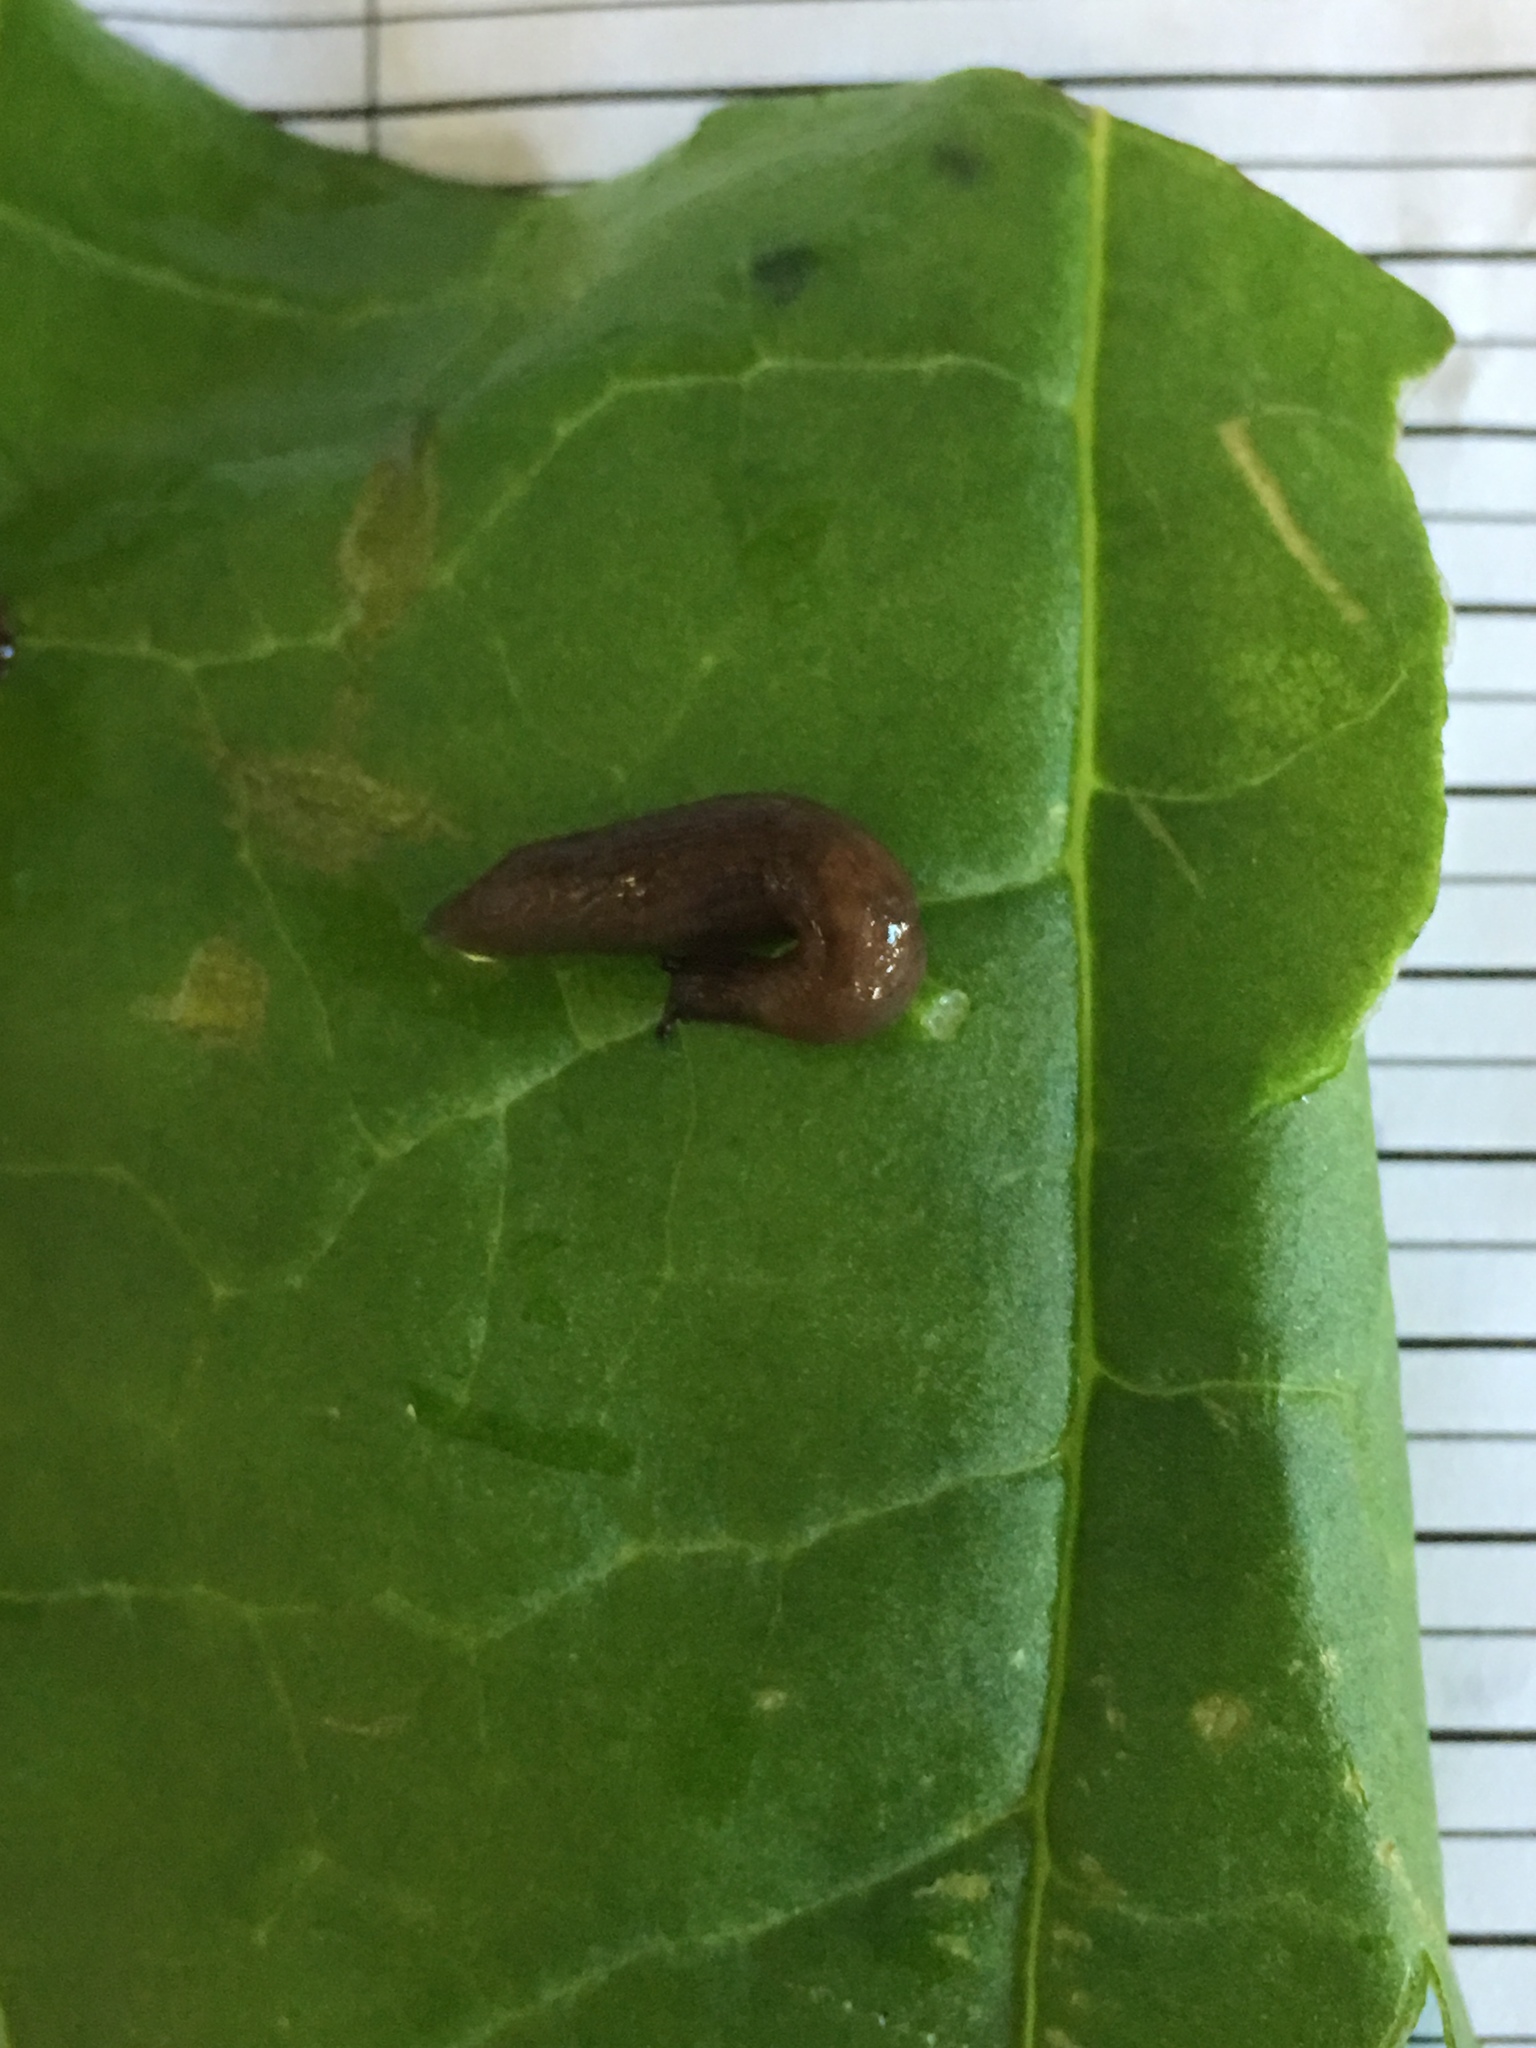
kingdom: Animalia
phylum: Mollusca
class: Gastropoda
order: Stylommatophora
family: Agriolimacidae
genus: Deroceras
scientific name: Deroceras laeve
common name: Marsh slug
